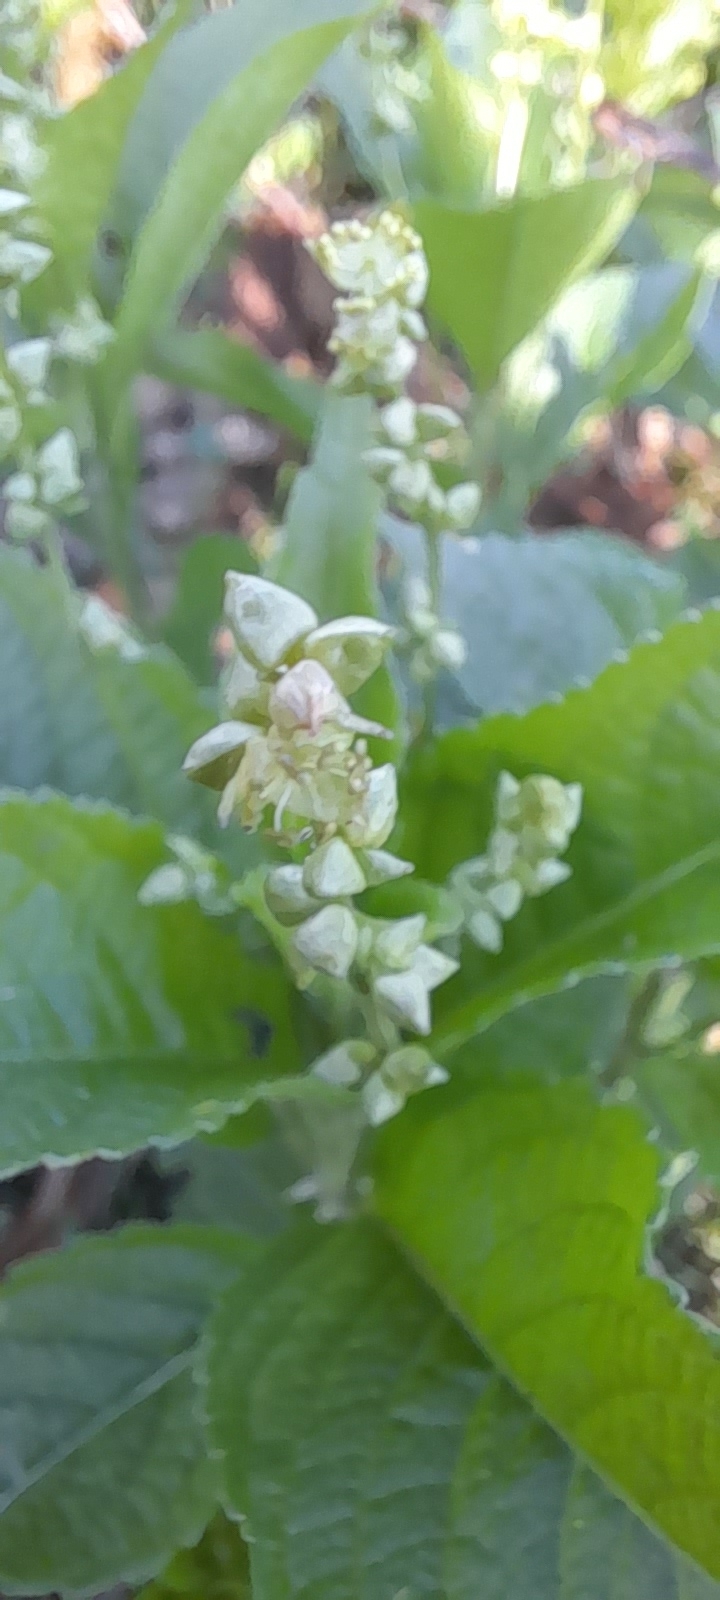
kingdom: Plantae
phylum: Tracheophyta
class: Magnoliopsida
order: Malpighiales
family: Euphorbiaceae
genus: Mercurialis
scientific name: Mercurialis perennis
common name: Dog mercury
